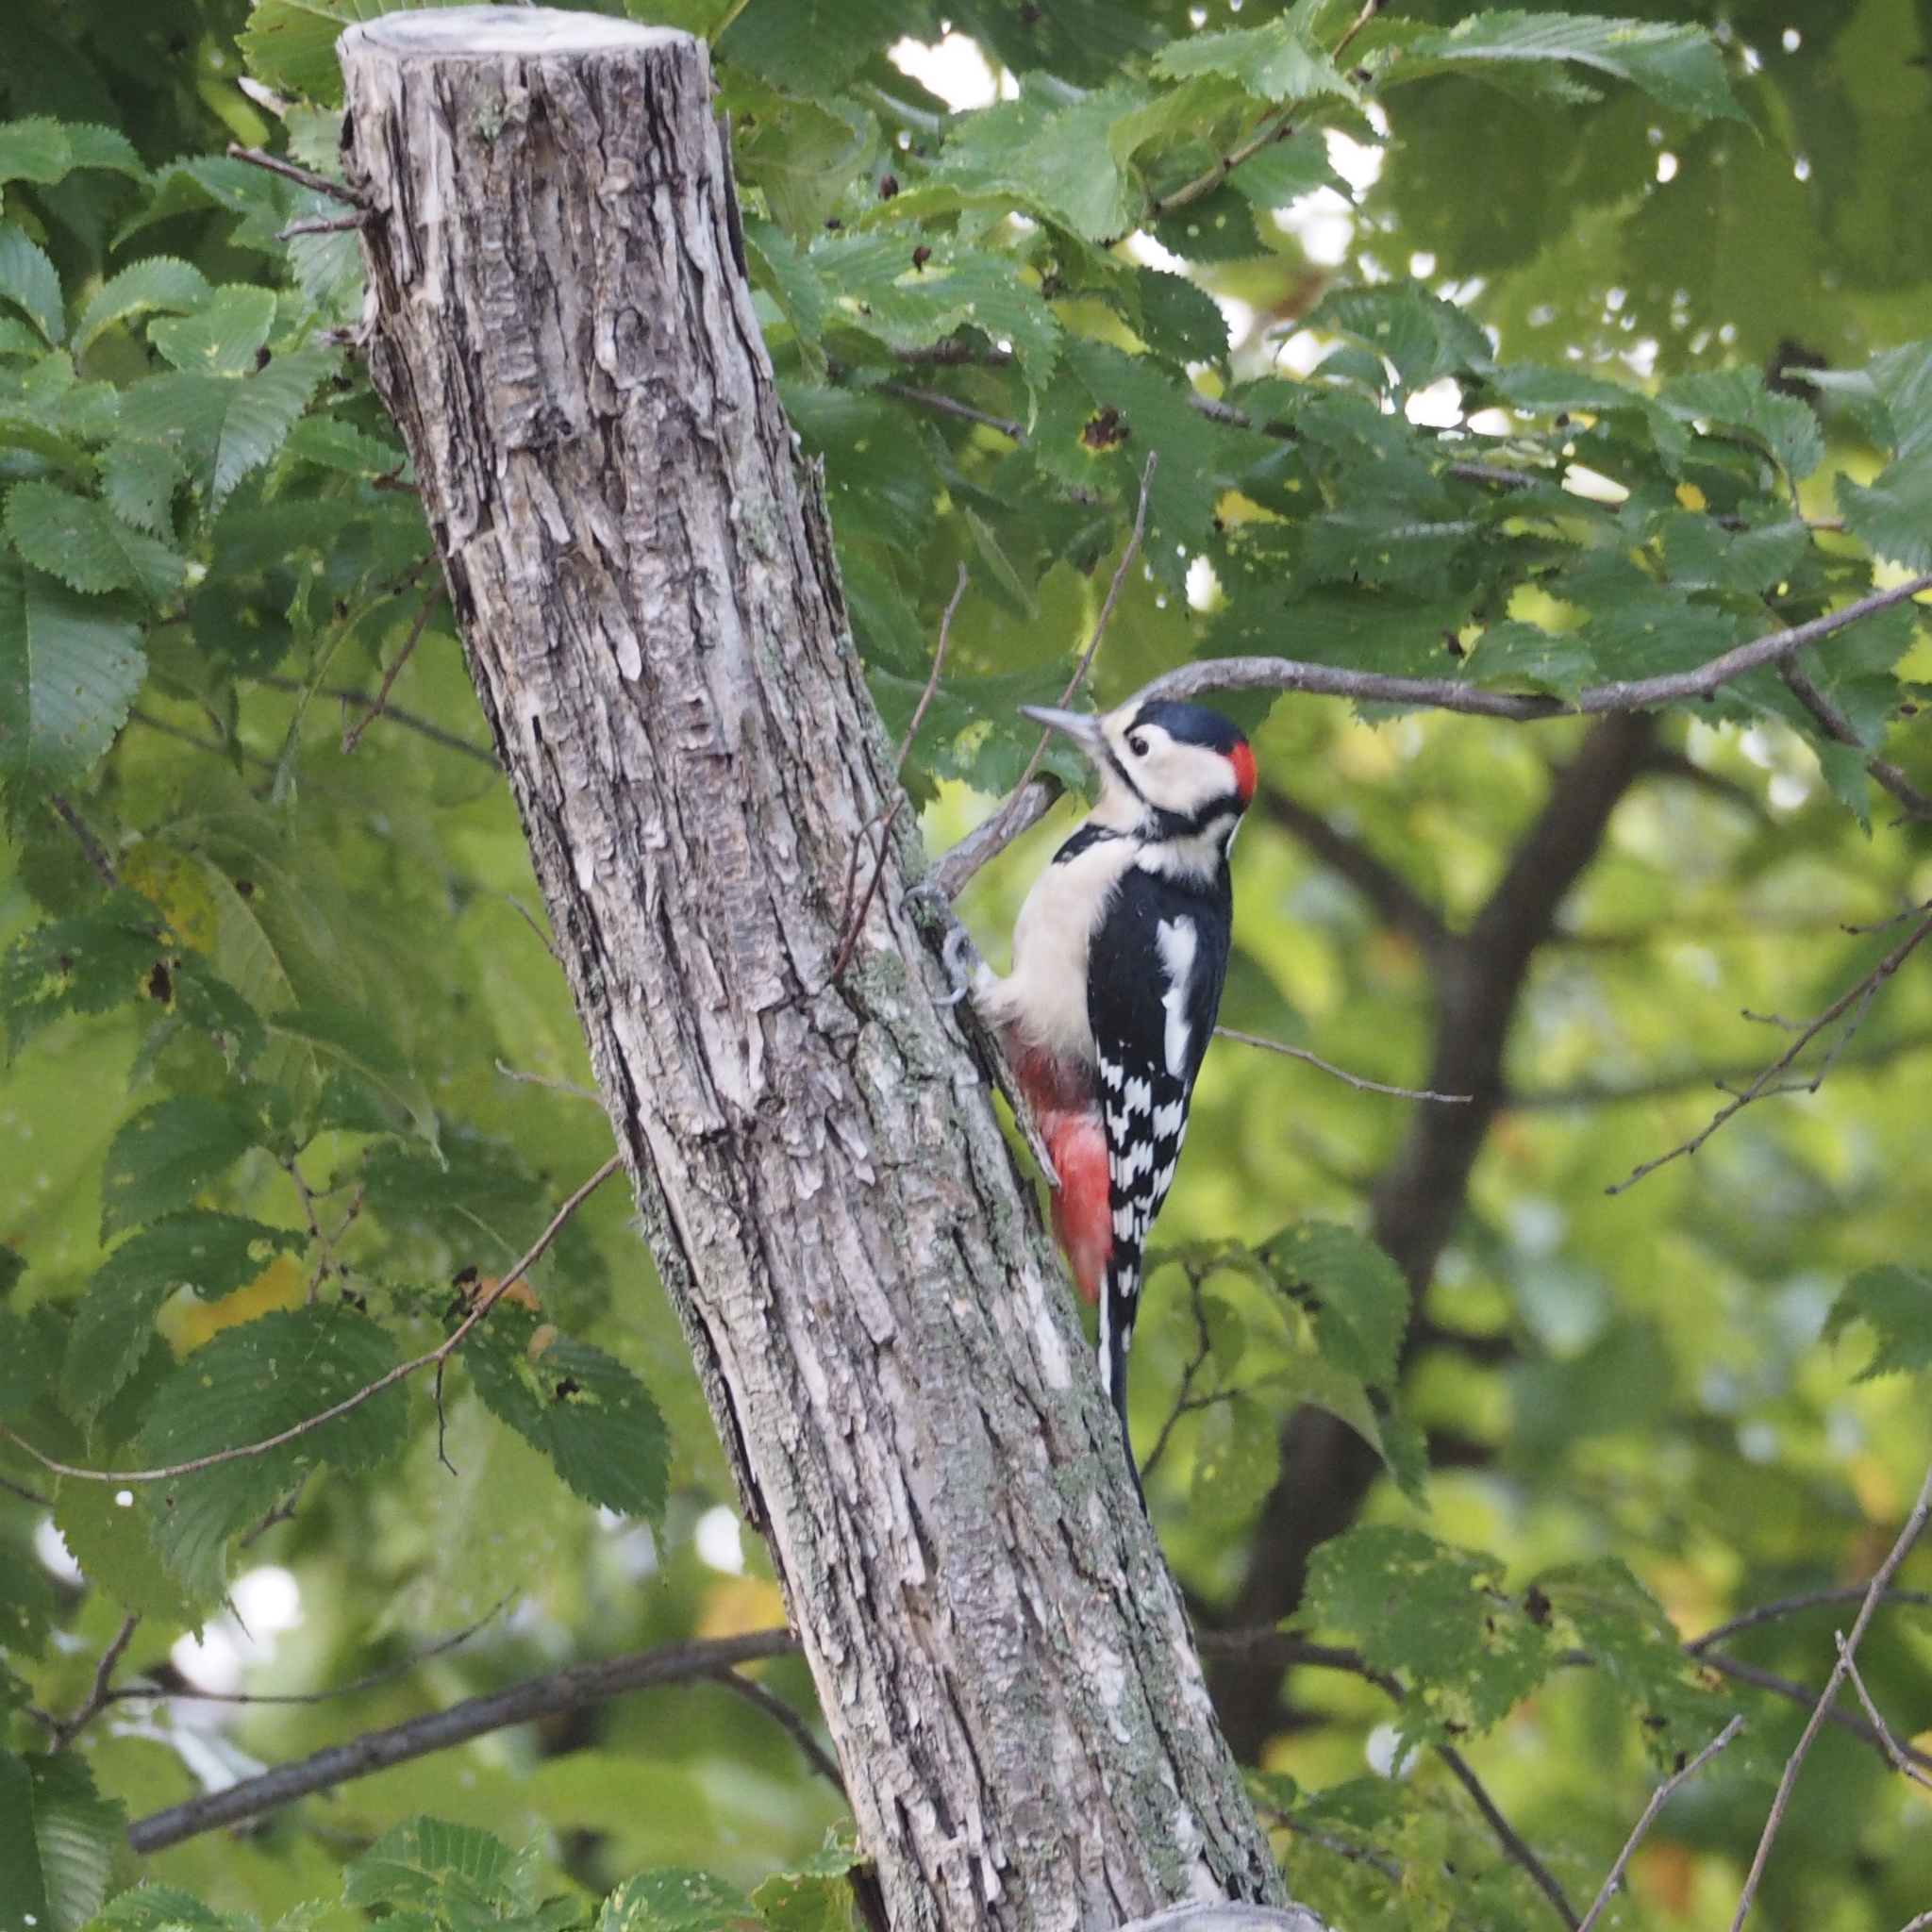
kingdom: Animalia
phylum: Chordata
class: Aves
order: Piciformes
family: Picidae
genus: Dendrocopos
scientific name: Dendrocopos major
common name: Great spotted woodpecker
